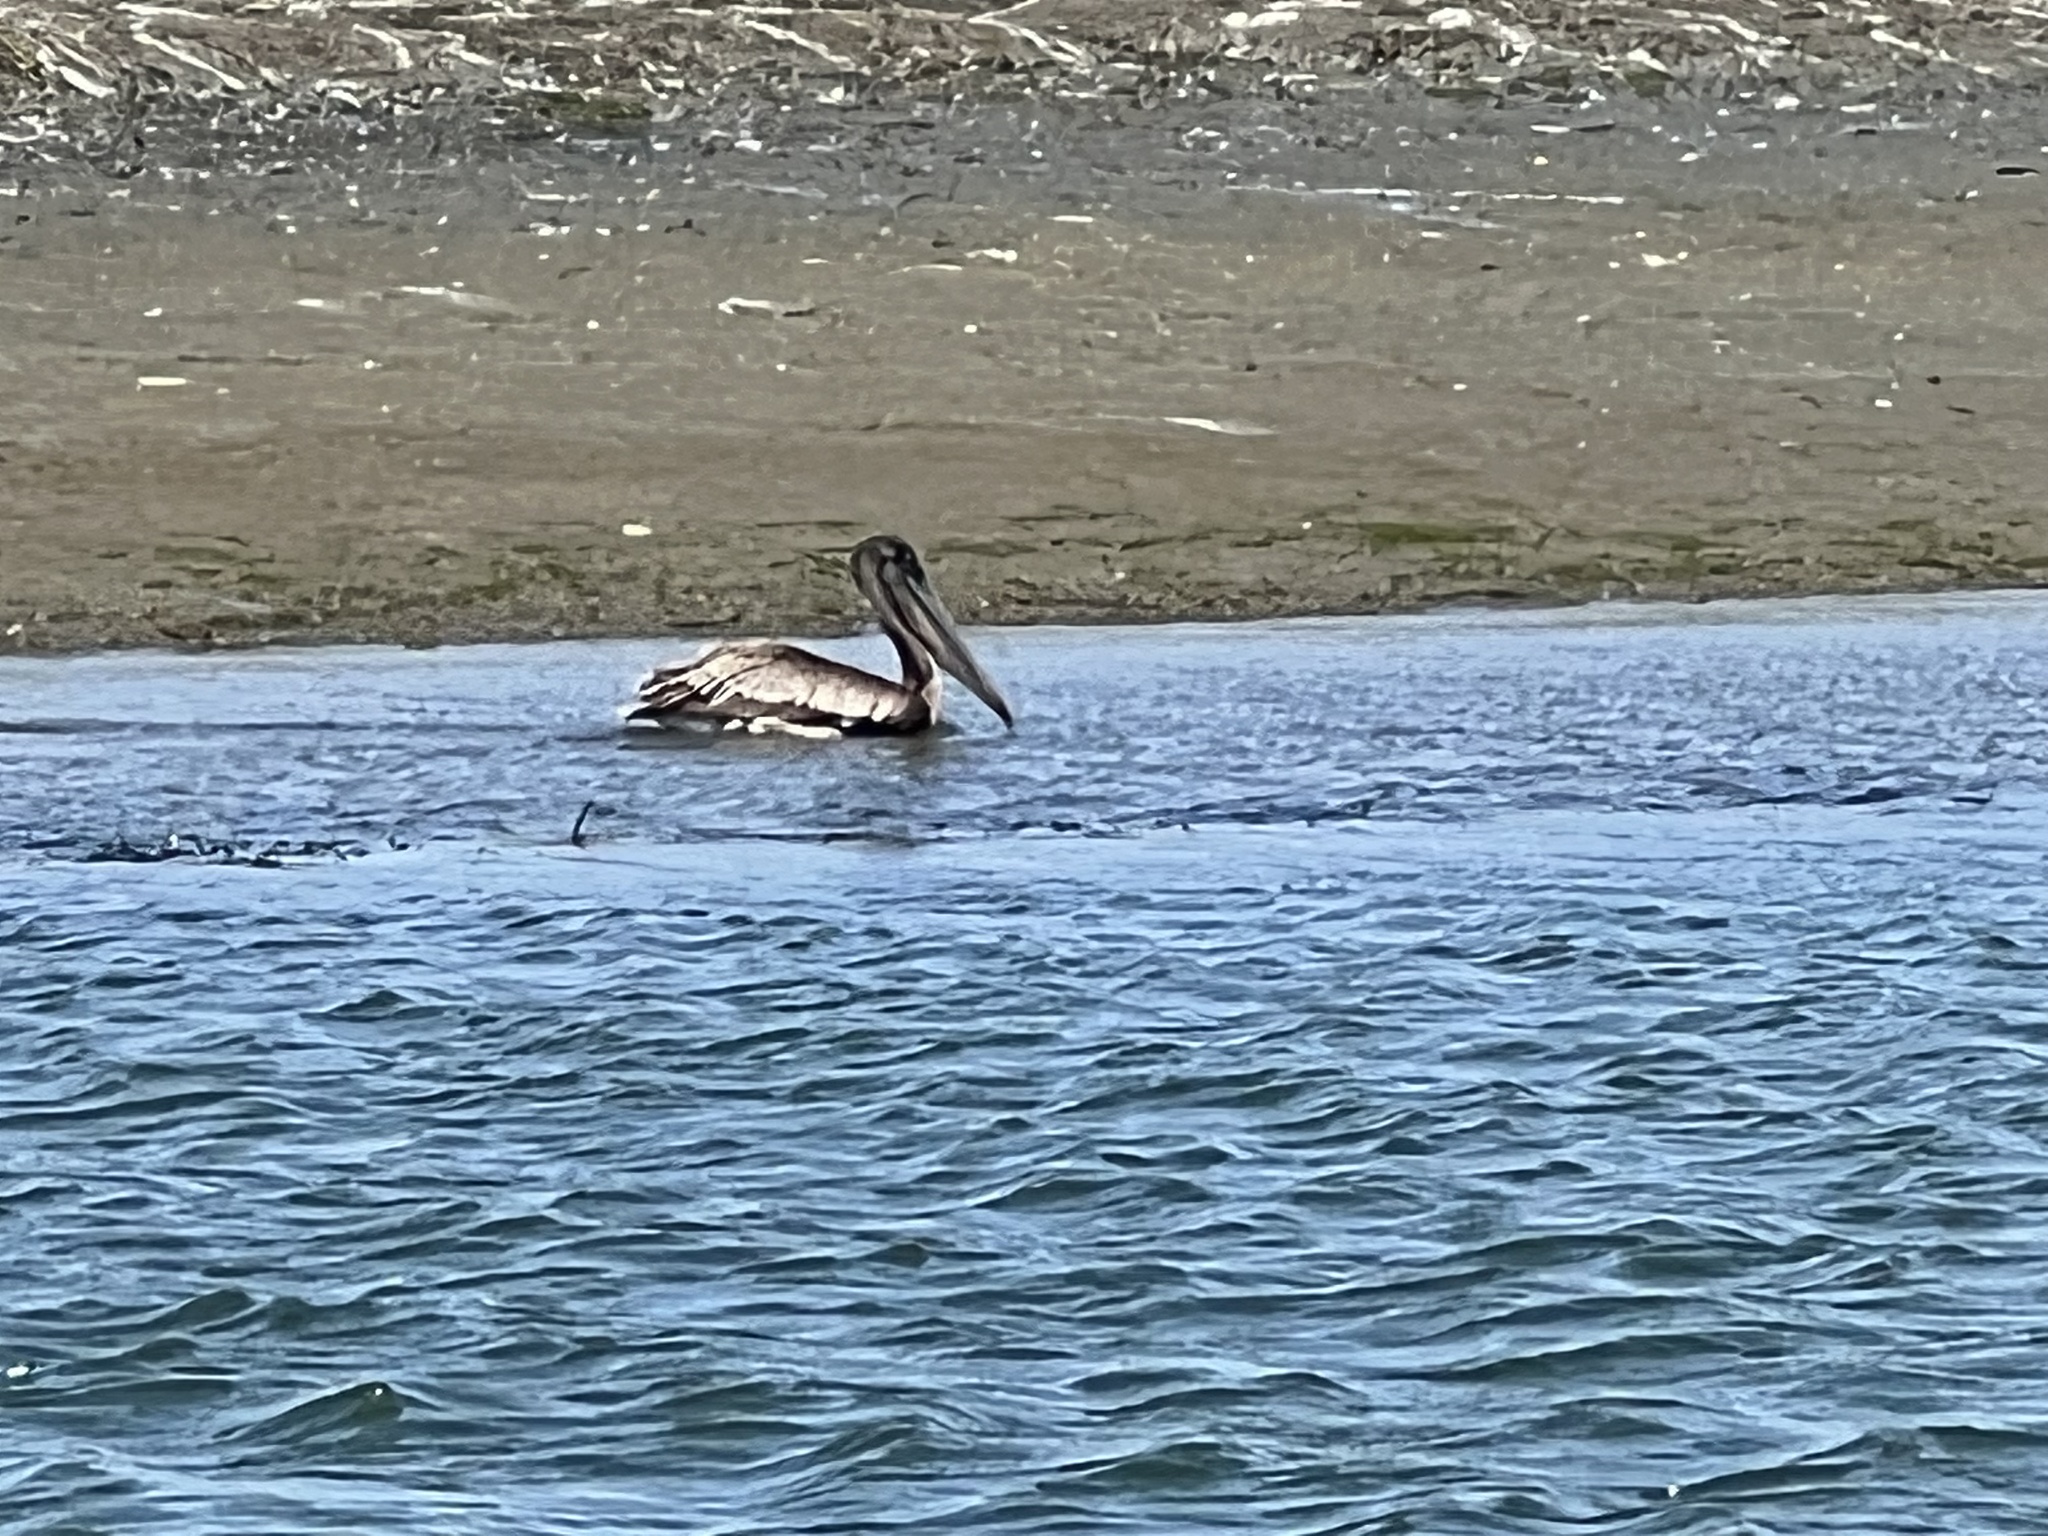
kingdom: Animalia
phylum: Chordata
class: Aves
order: Pelecaniformes
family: Pelecanidae
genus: Pelecanus
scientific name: Pelecanus occidentalis
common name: Brown pelican
